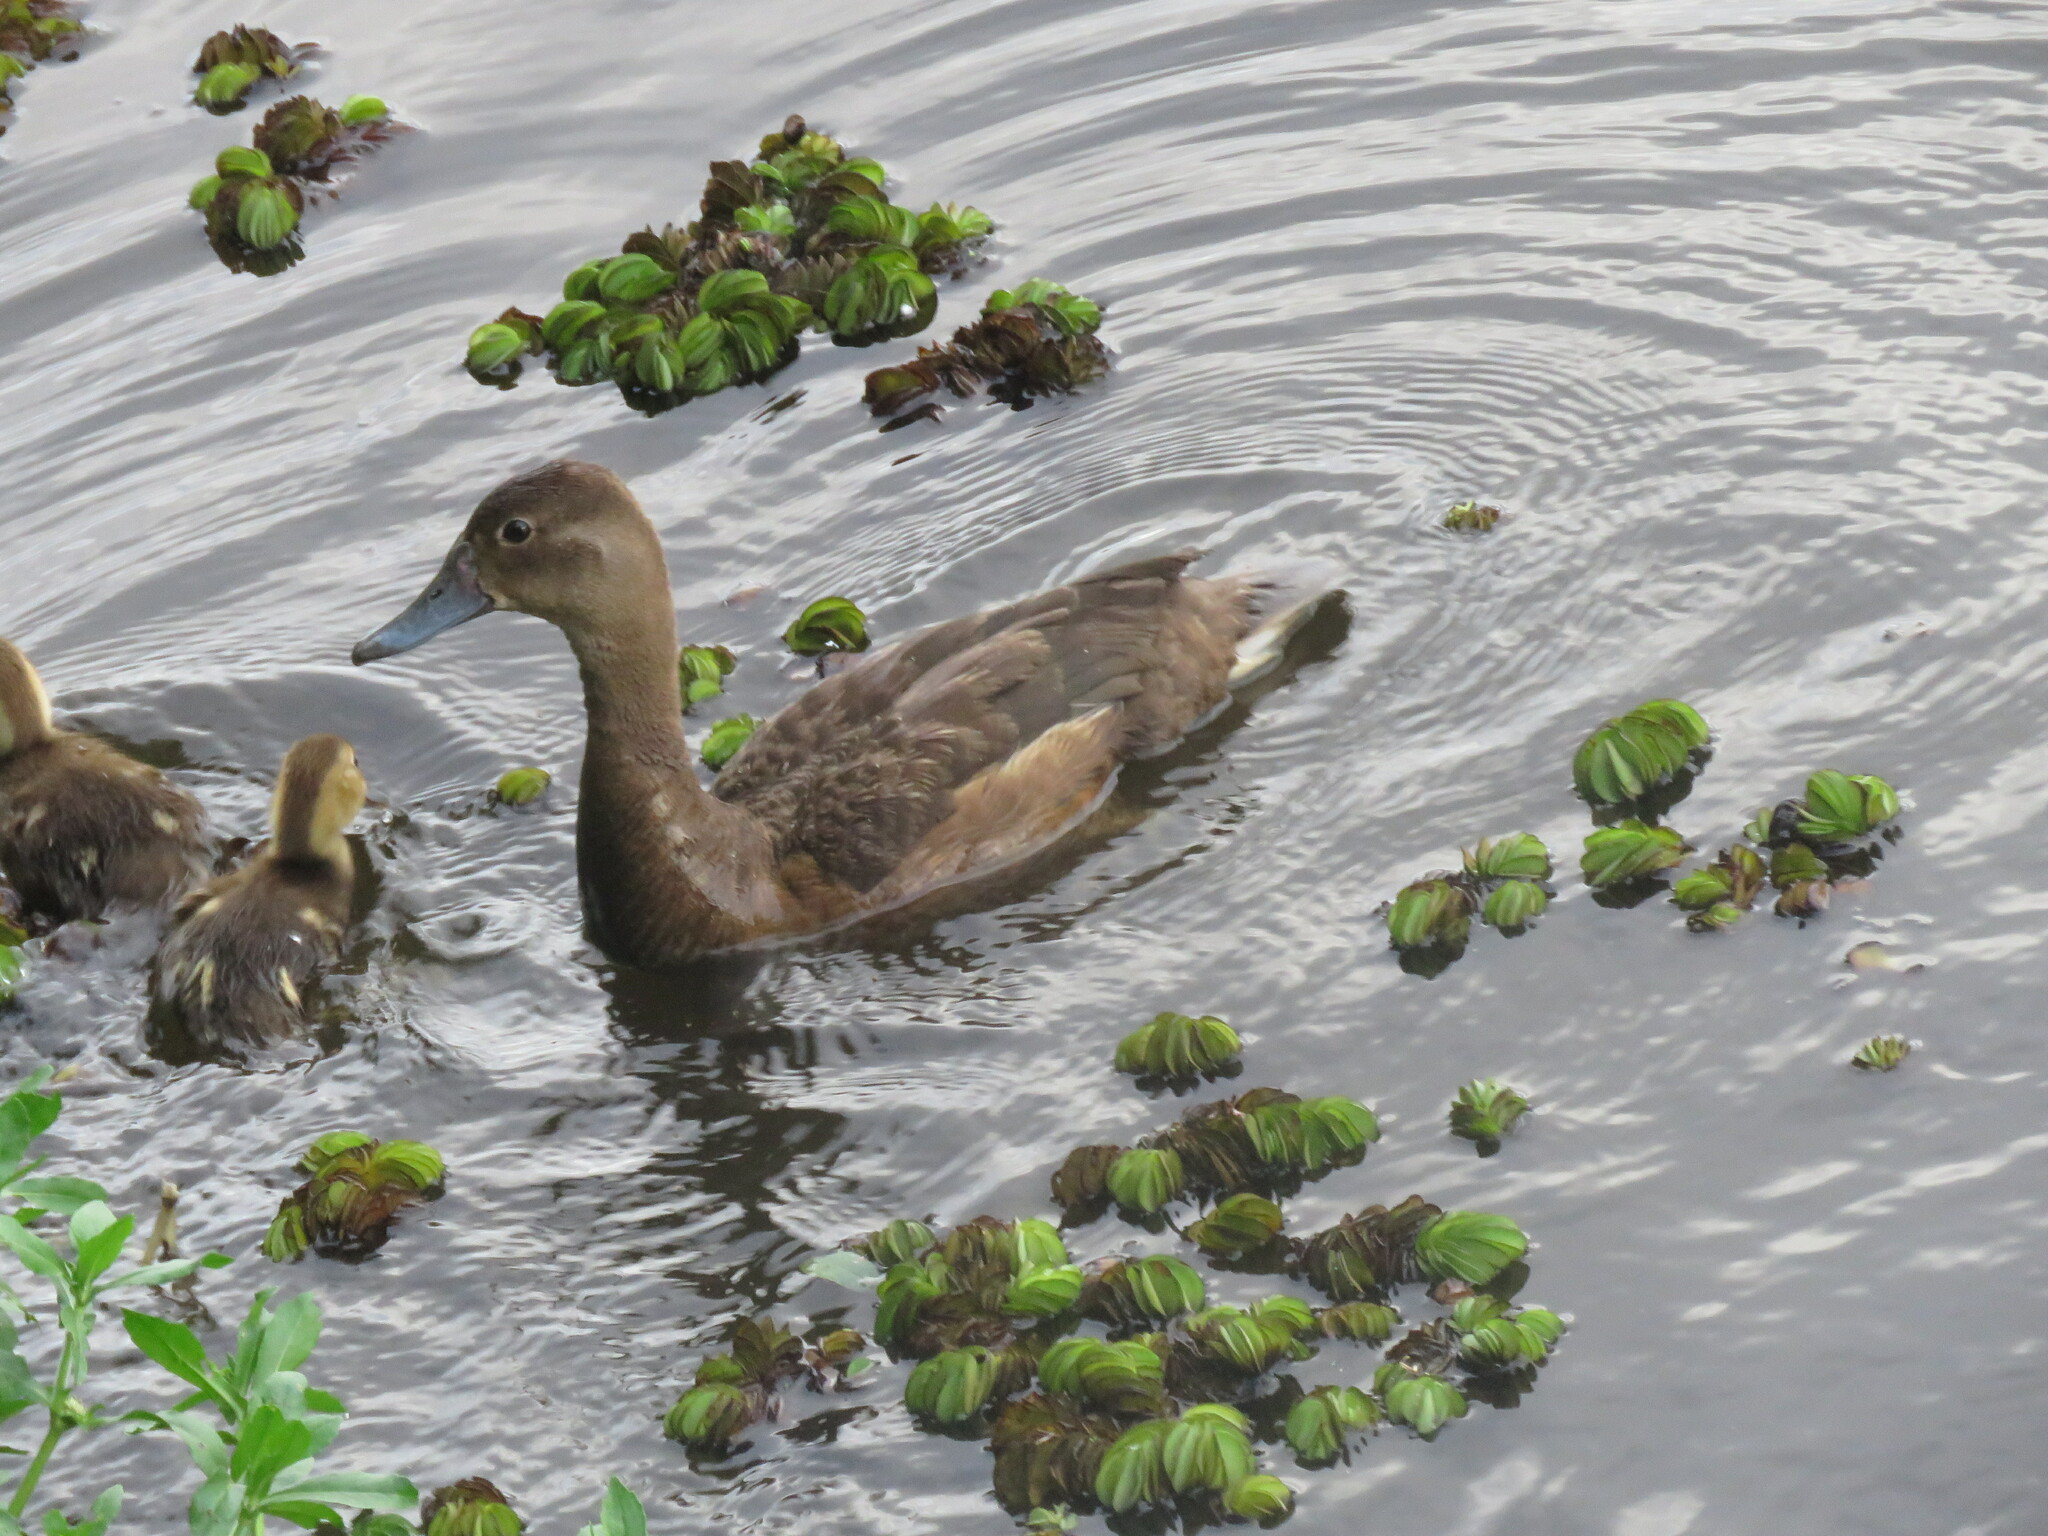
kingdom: Animalia
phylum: Chordata
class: Aves
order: Anseriformes
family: Anatidae
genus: Netta
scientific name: Netta peposaca
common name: Rosy-billed pochard
